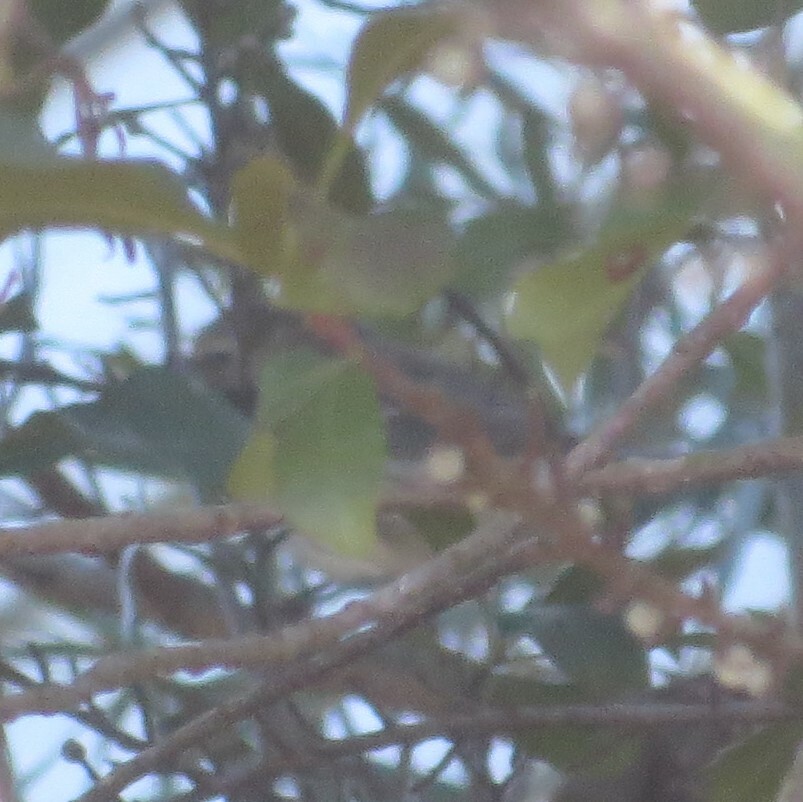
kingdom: Animalia
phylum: Chordata
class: Aves
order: Passeriformes
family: Parulidae
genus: Setophaga
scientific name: Setophaga coronata
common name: Myrtle warbler
